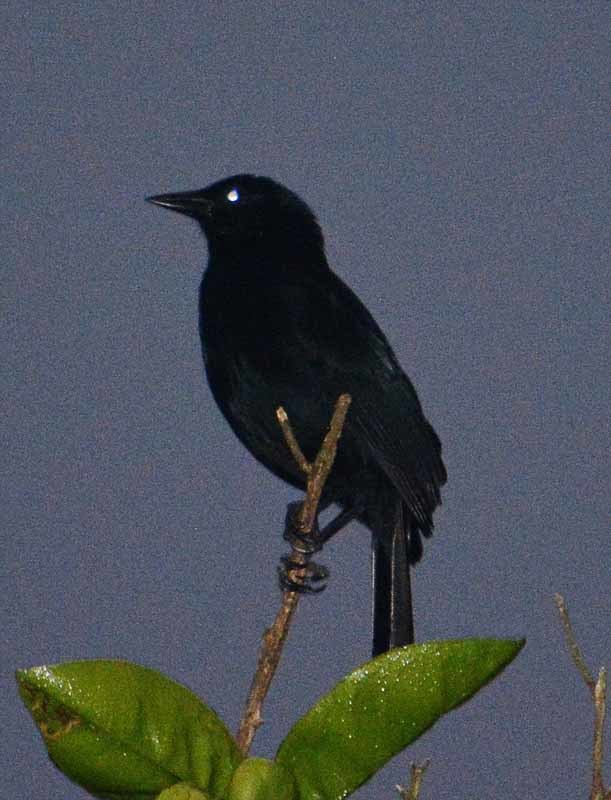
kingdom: Animalia
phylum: Chordata
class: Aves
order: Passeriformes
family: Icteridae
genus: Dives
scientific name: Dives dives
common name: Melodious blackbird
